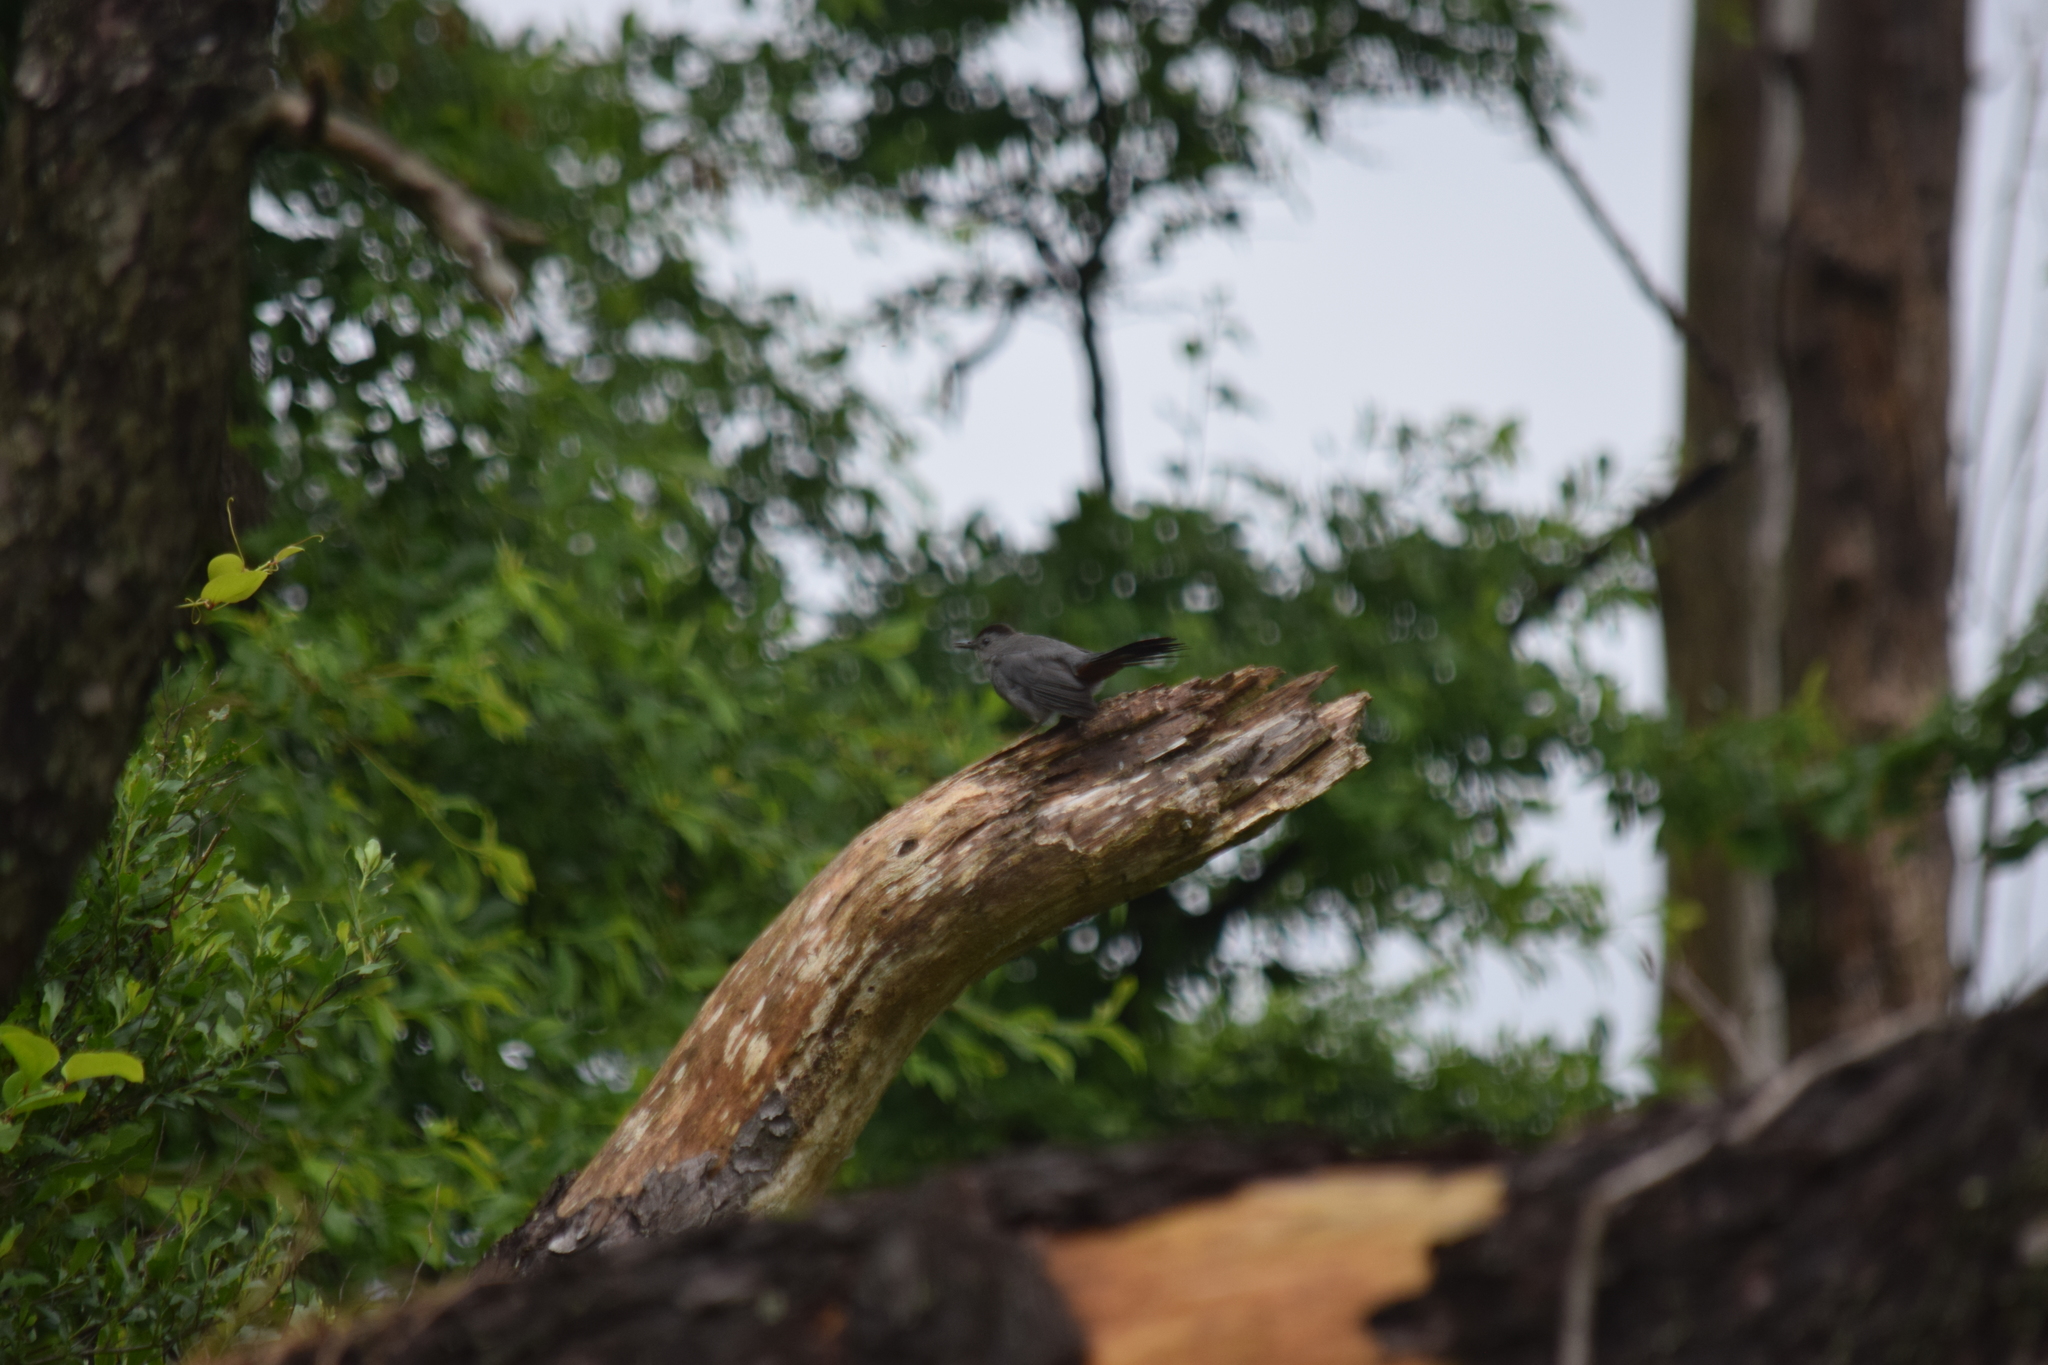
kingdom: Animalia
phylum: Chordata
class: Aves
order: Passeriformes
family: Mimidae
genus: Dumetella
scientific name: Dumetella carolinensis
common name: Gray catbird
